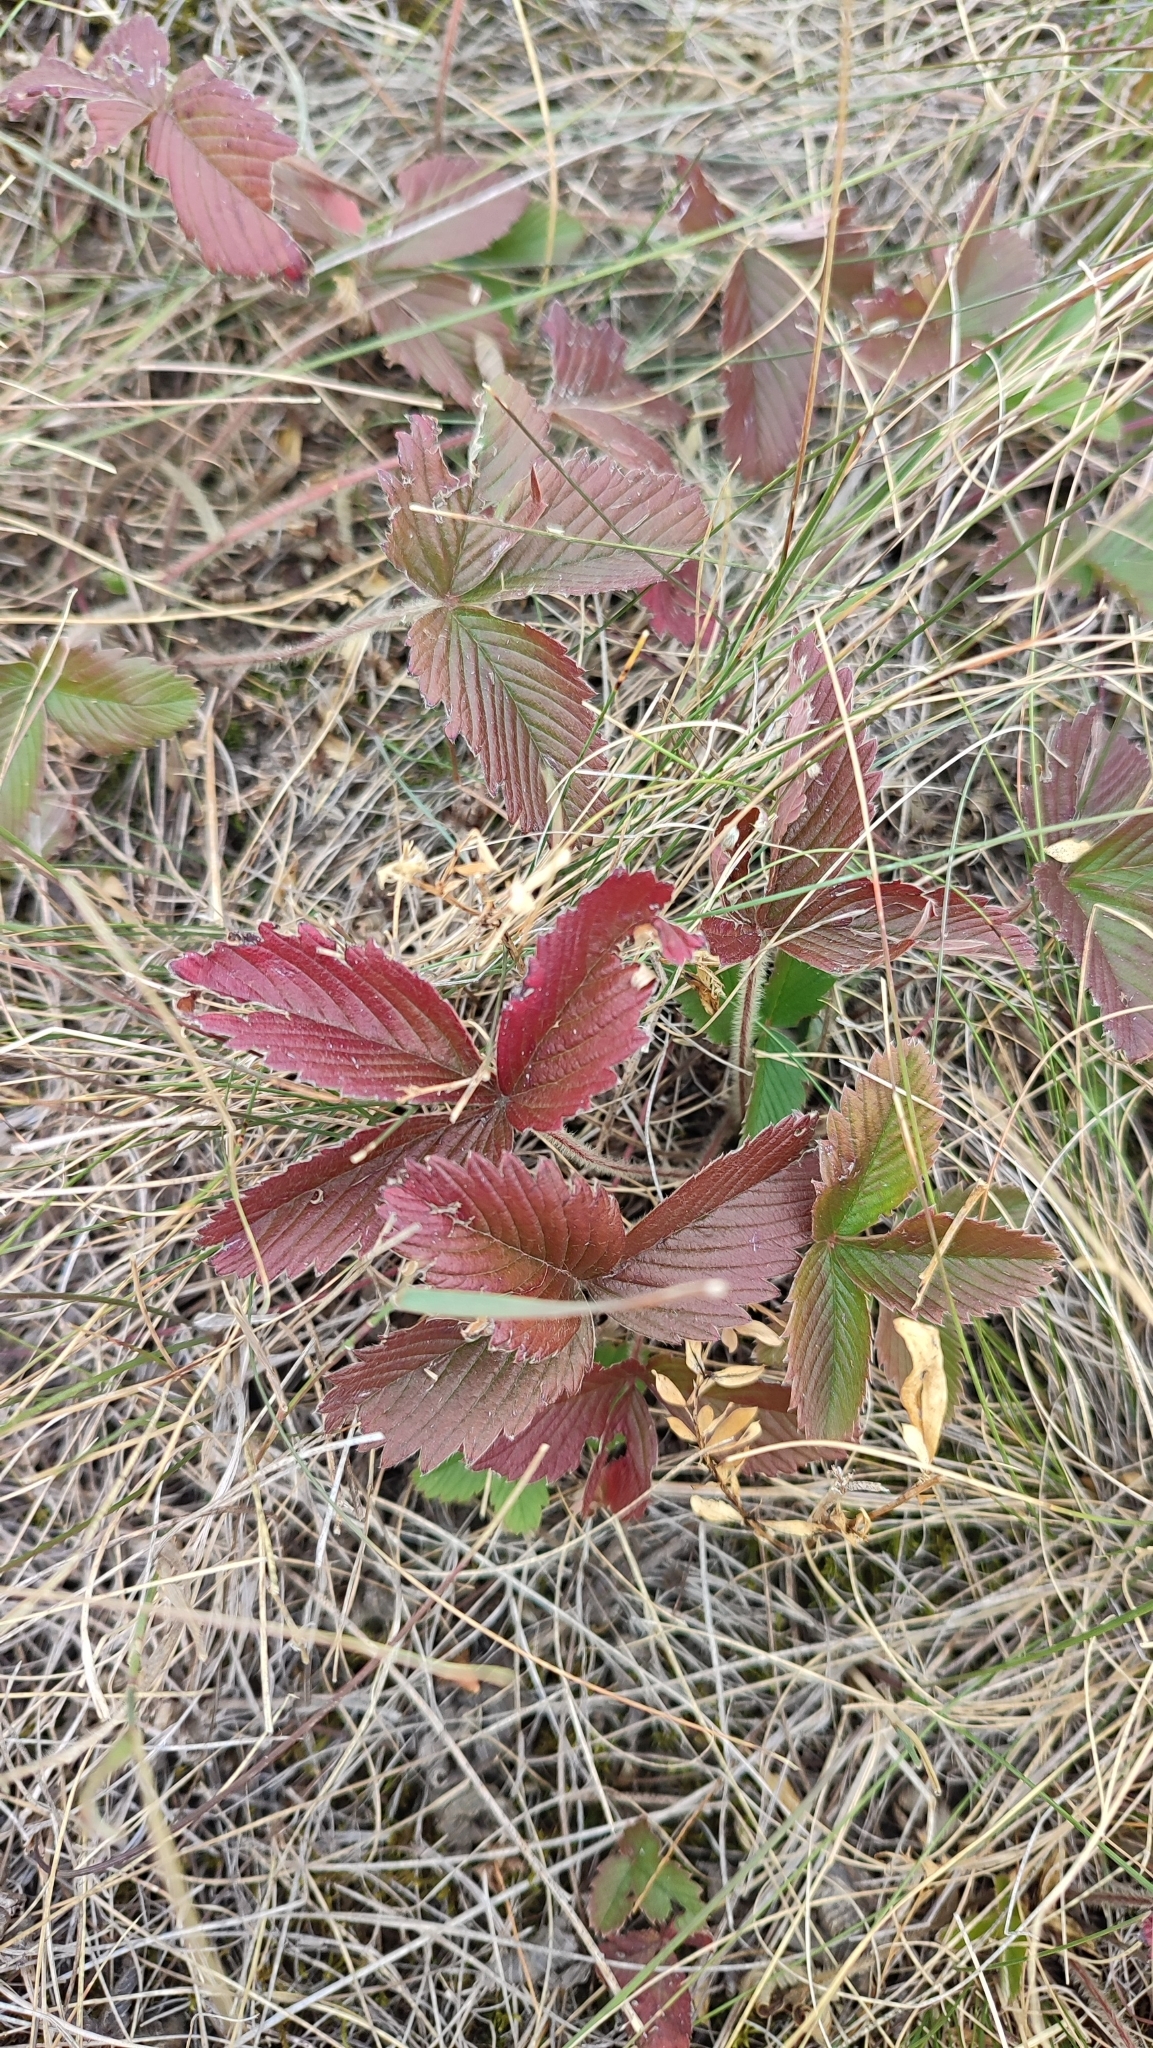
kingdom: Plantae
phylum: Tracheophyta
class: Magnoliopsida
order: Rosales
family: Rosaceae
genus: Fragaria
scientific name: Fragaria viridis
